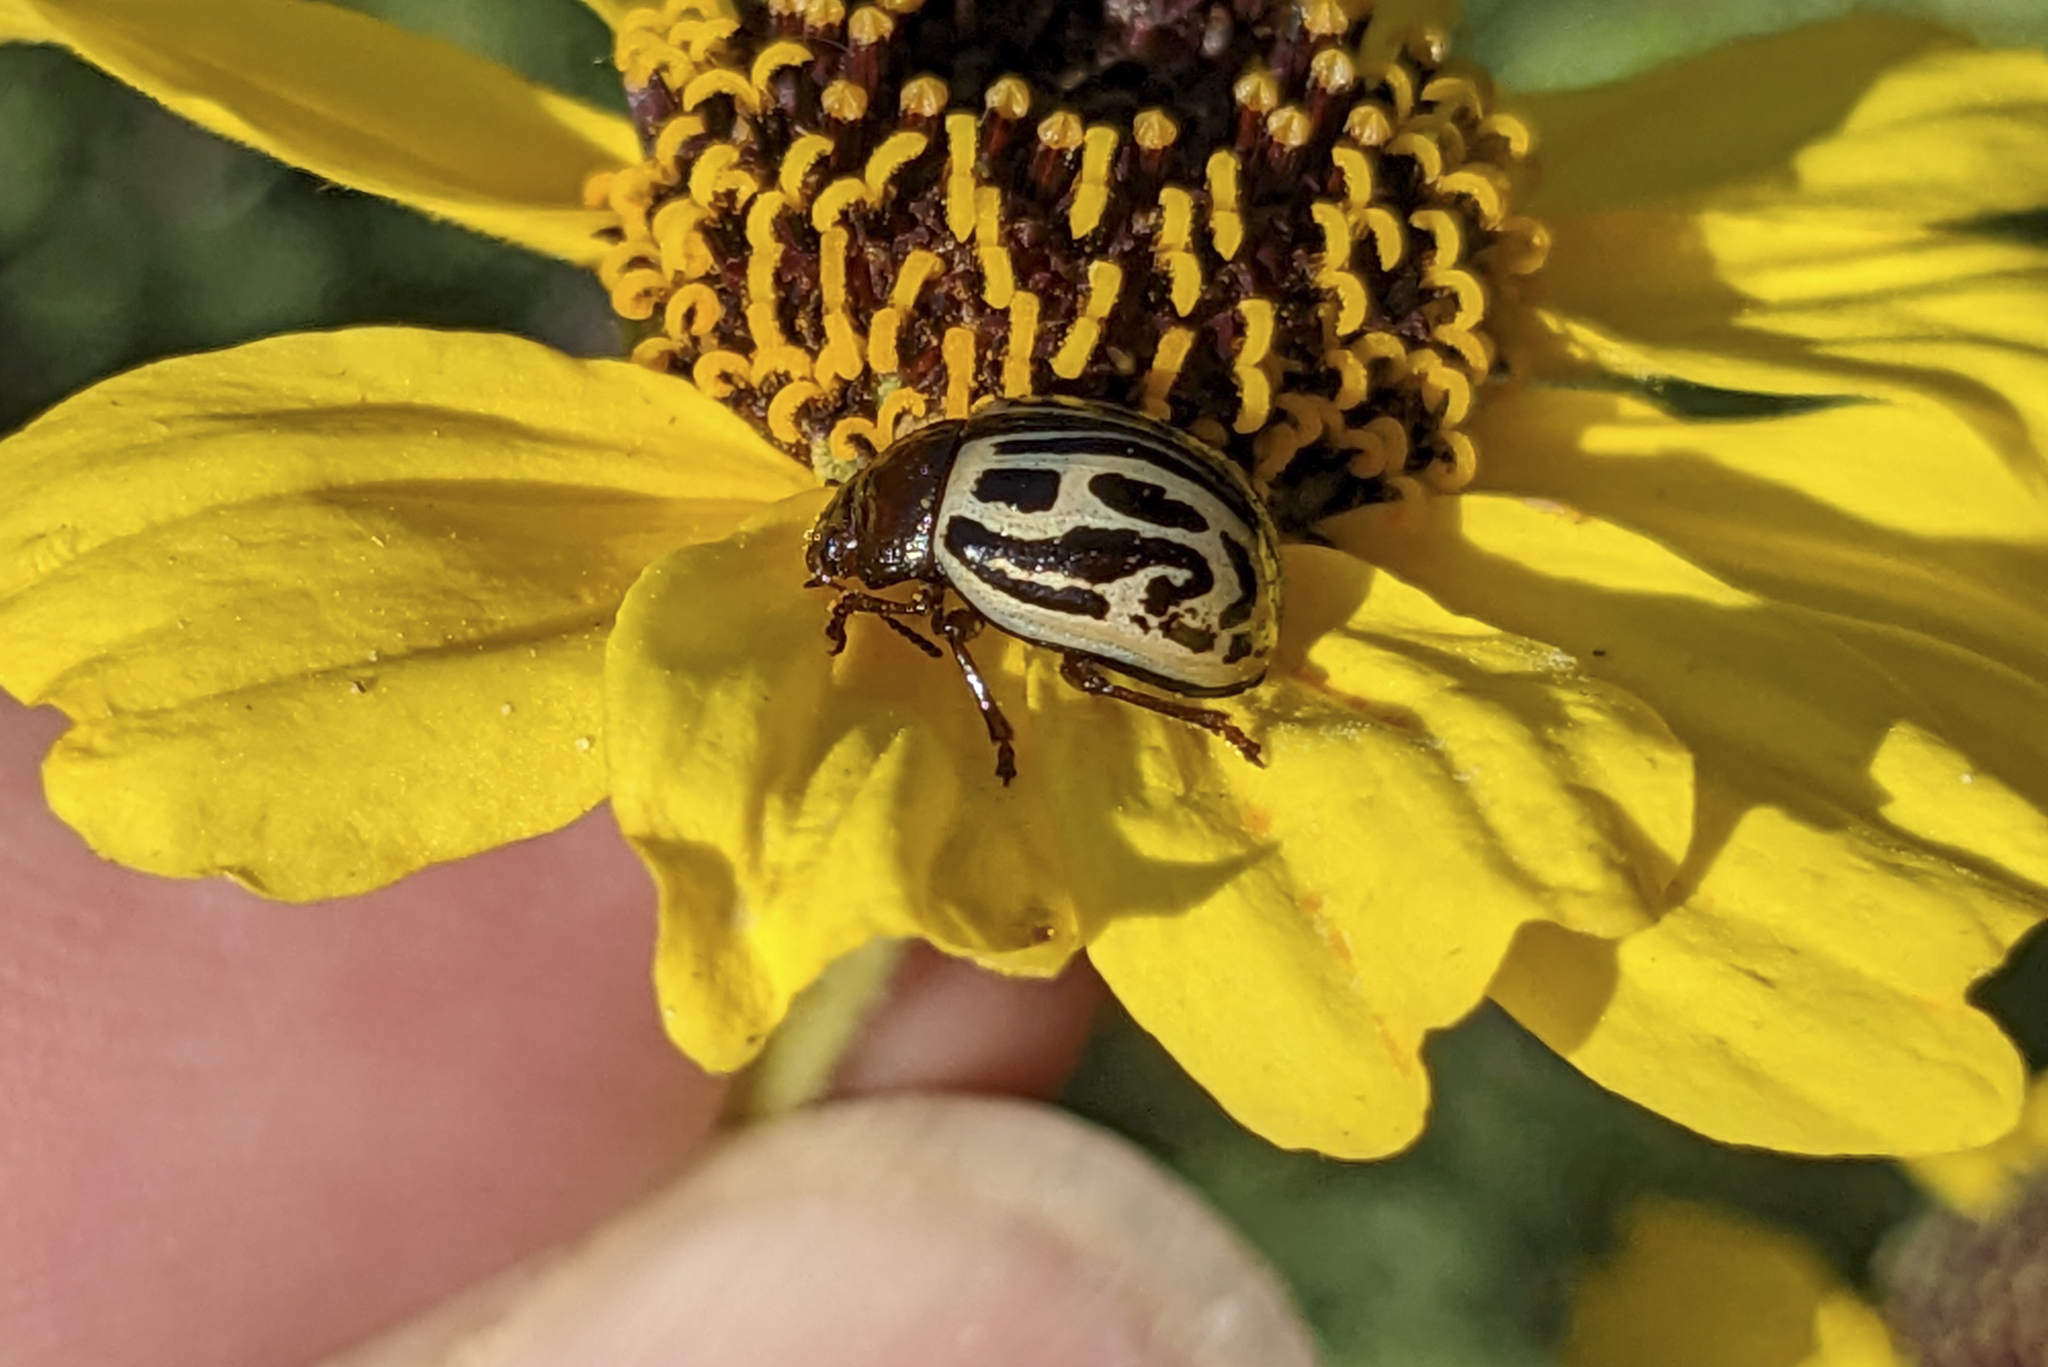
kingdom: Animalia
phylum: Arthropoda
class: Insecta
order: Coleoptera
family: Chrysomelidae
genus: Calligrapha
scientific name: Calligrapha
